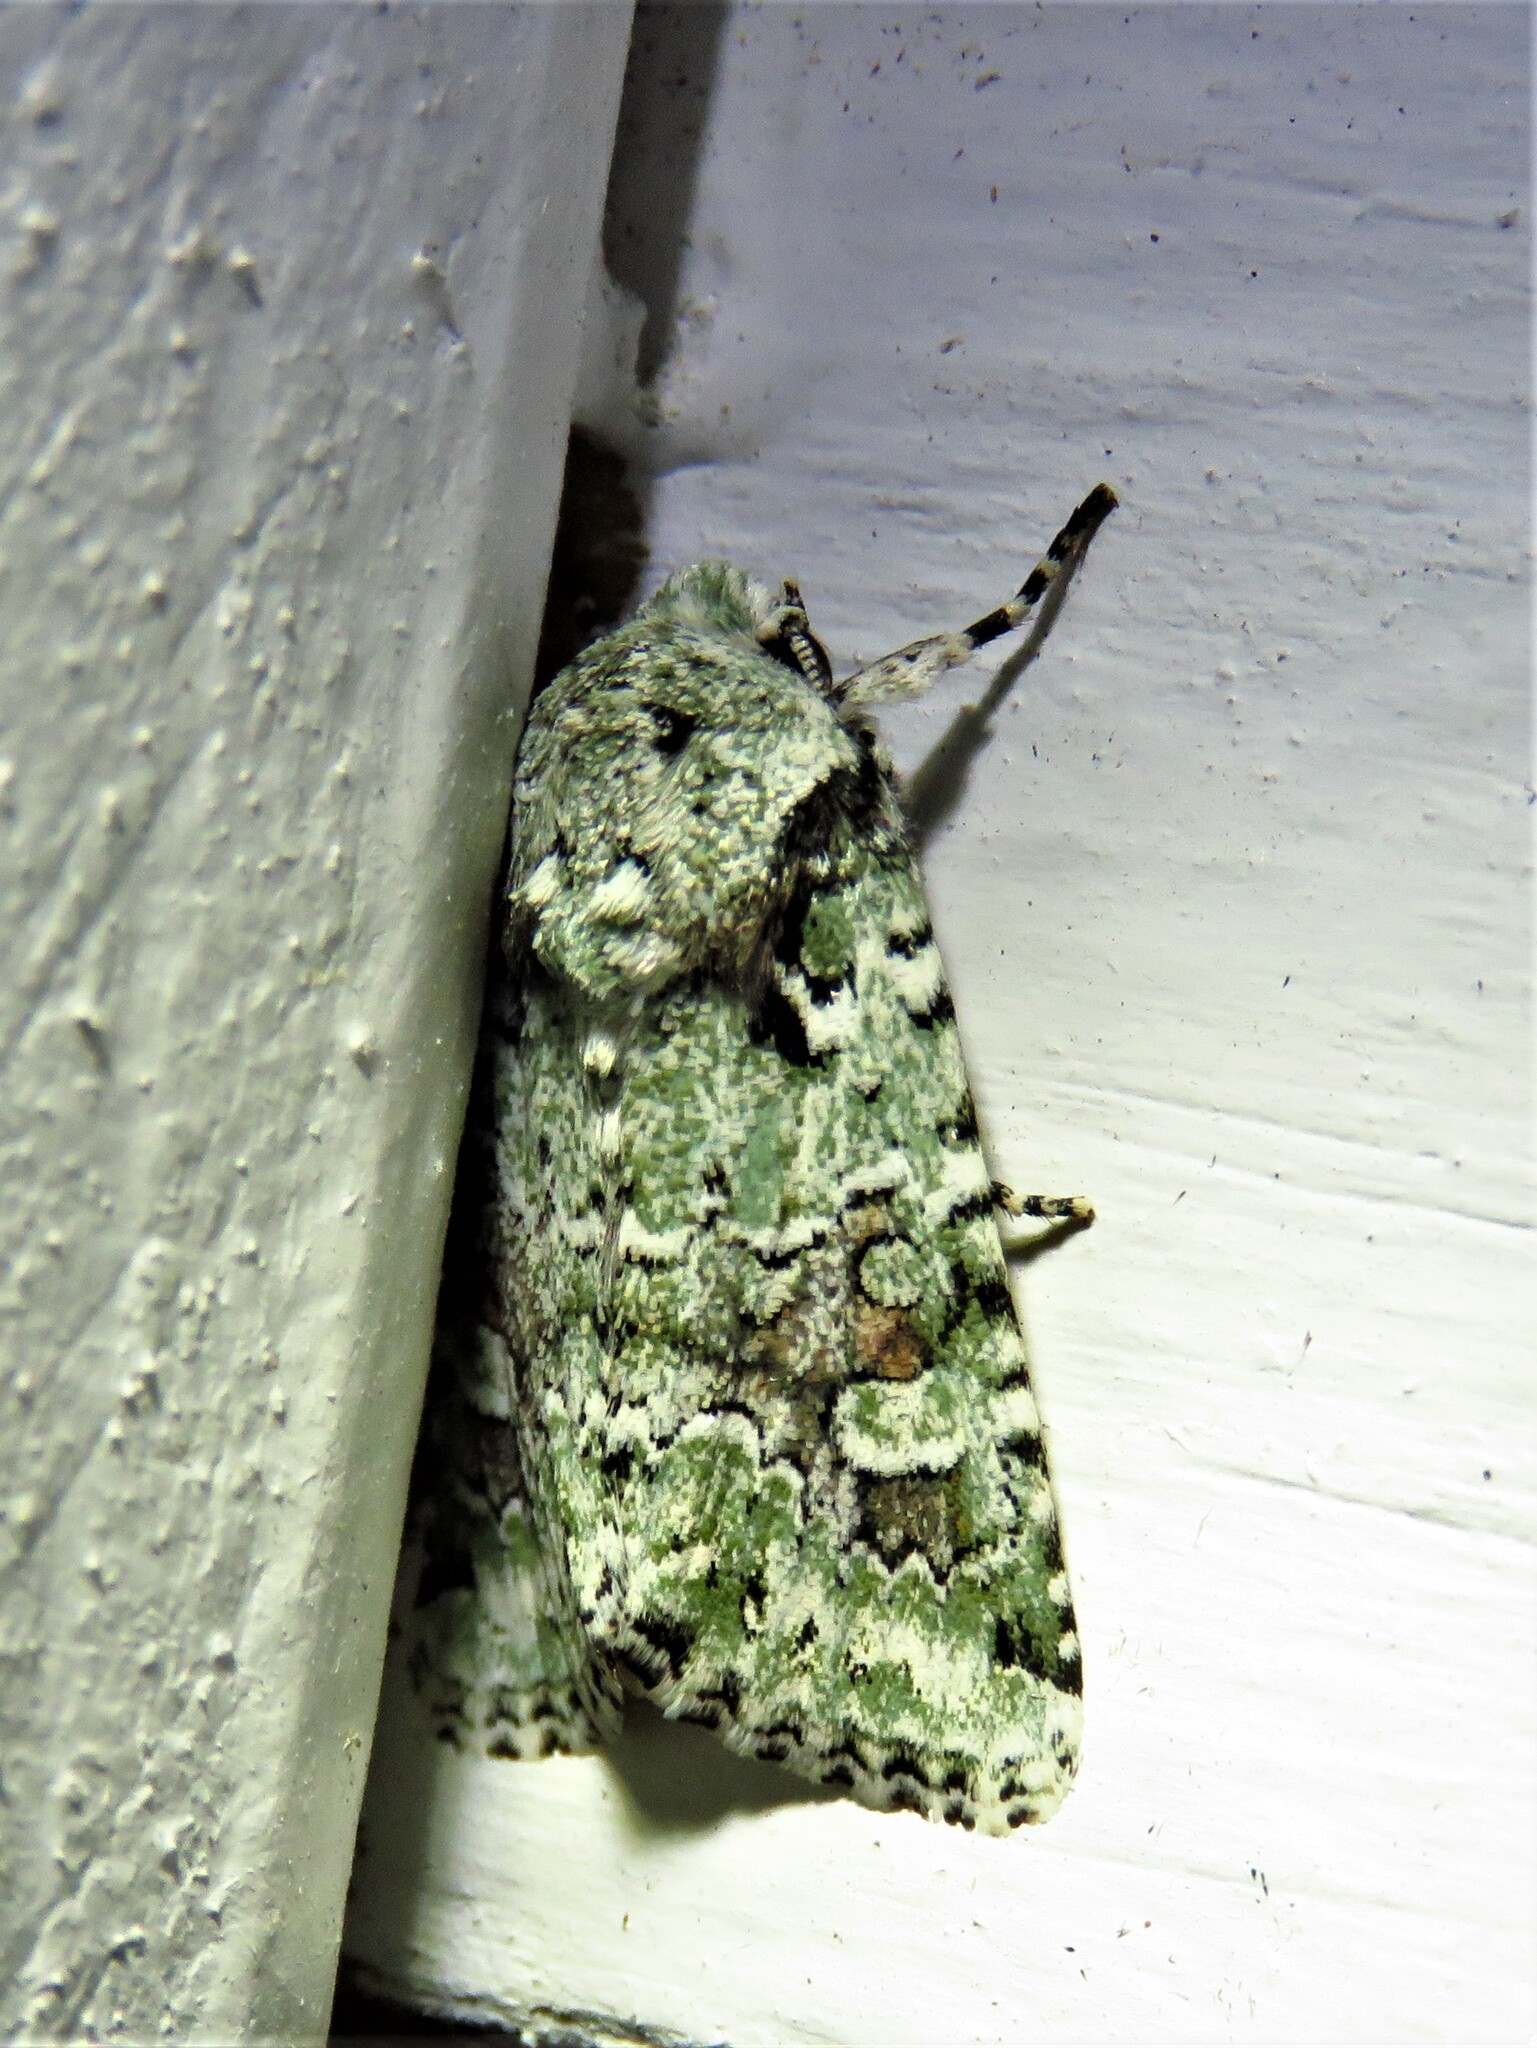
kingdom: Animalia
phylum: Arthropoda
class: Insecta
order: Lepidoptera
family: Noctuidae
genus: Lacinipolia
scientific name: Lacinipolia laudabilis
